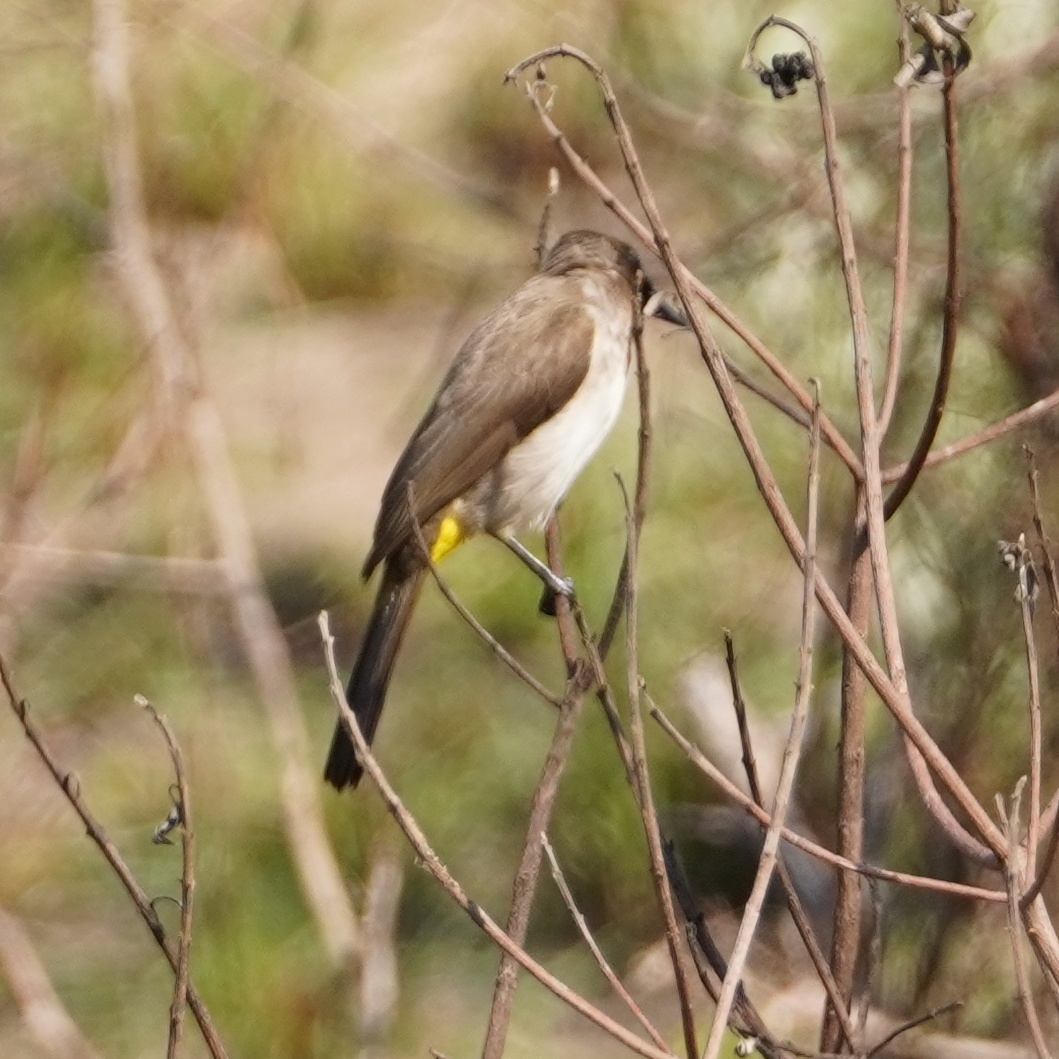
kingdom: Animalia
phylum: Chordata
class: Aves
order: Passeriformes
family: Pycnonotidae
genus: Pycnonotus
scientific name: Pycnonotus barbatus
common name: Common bulbul
